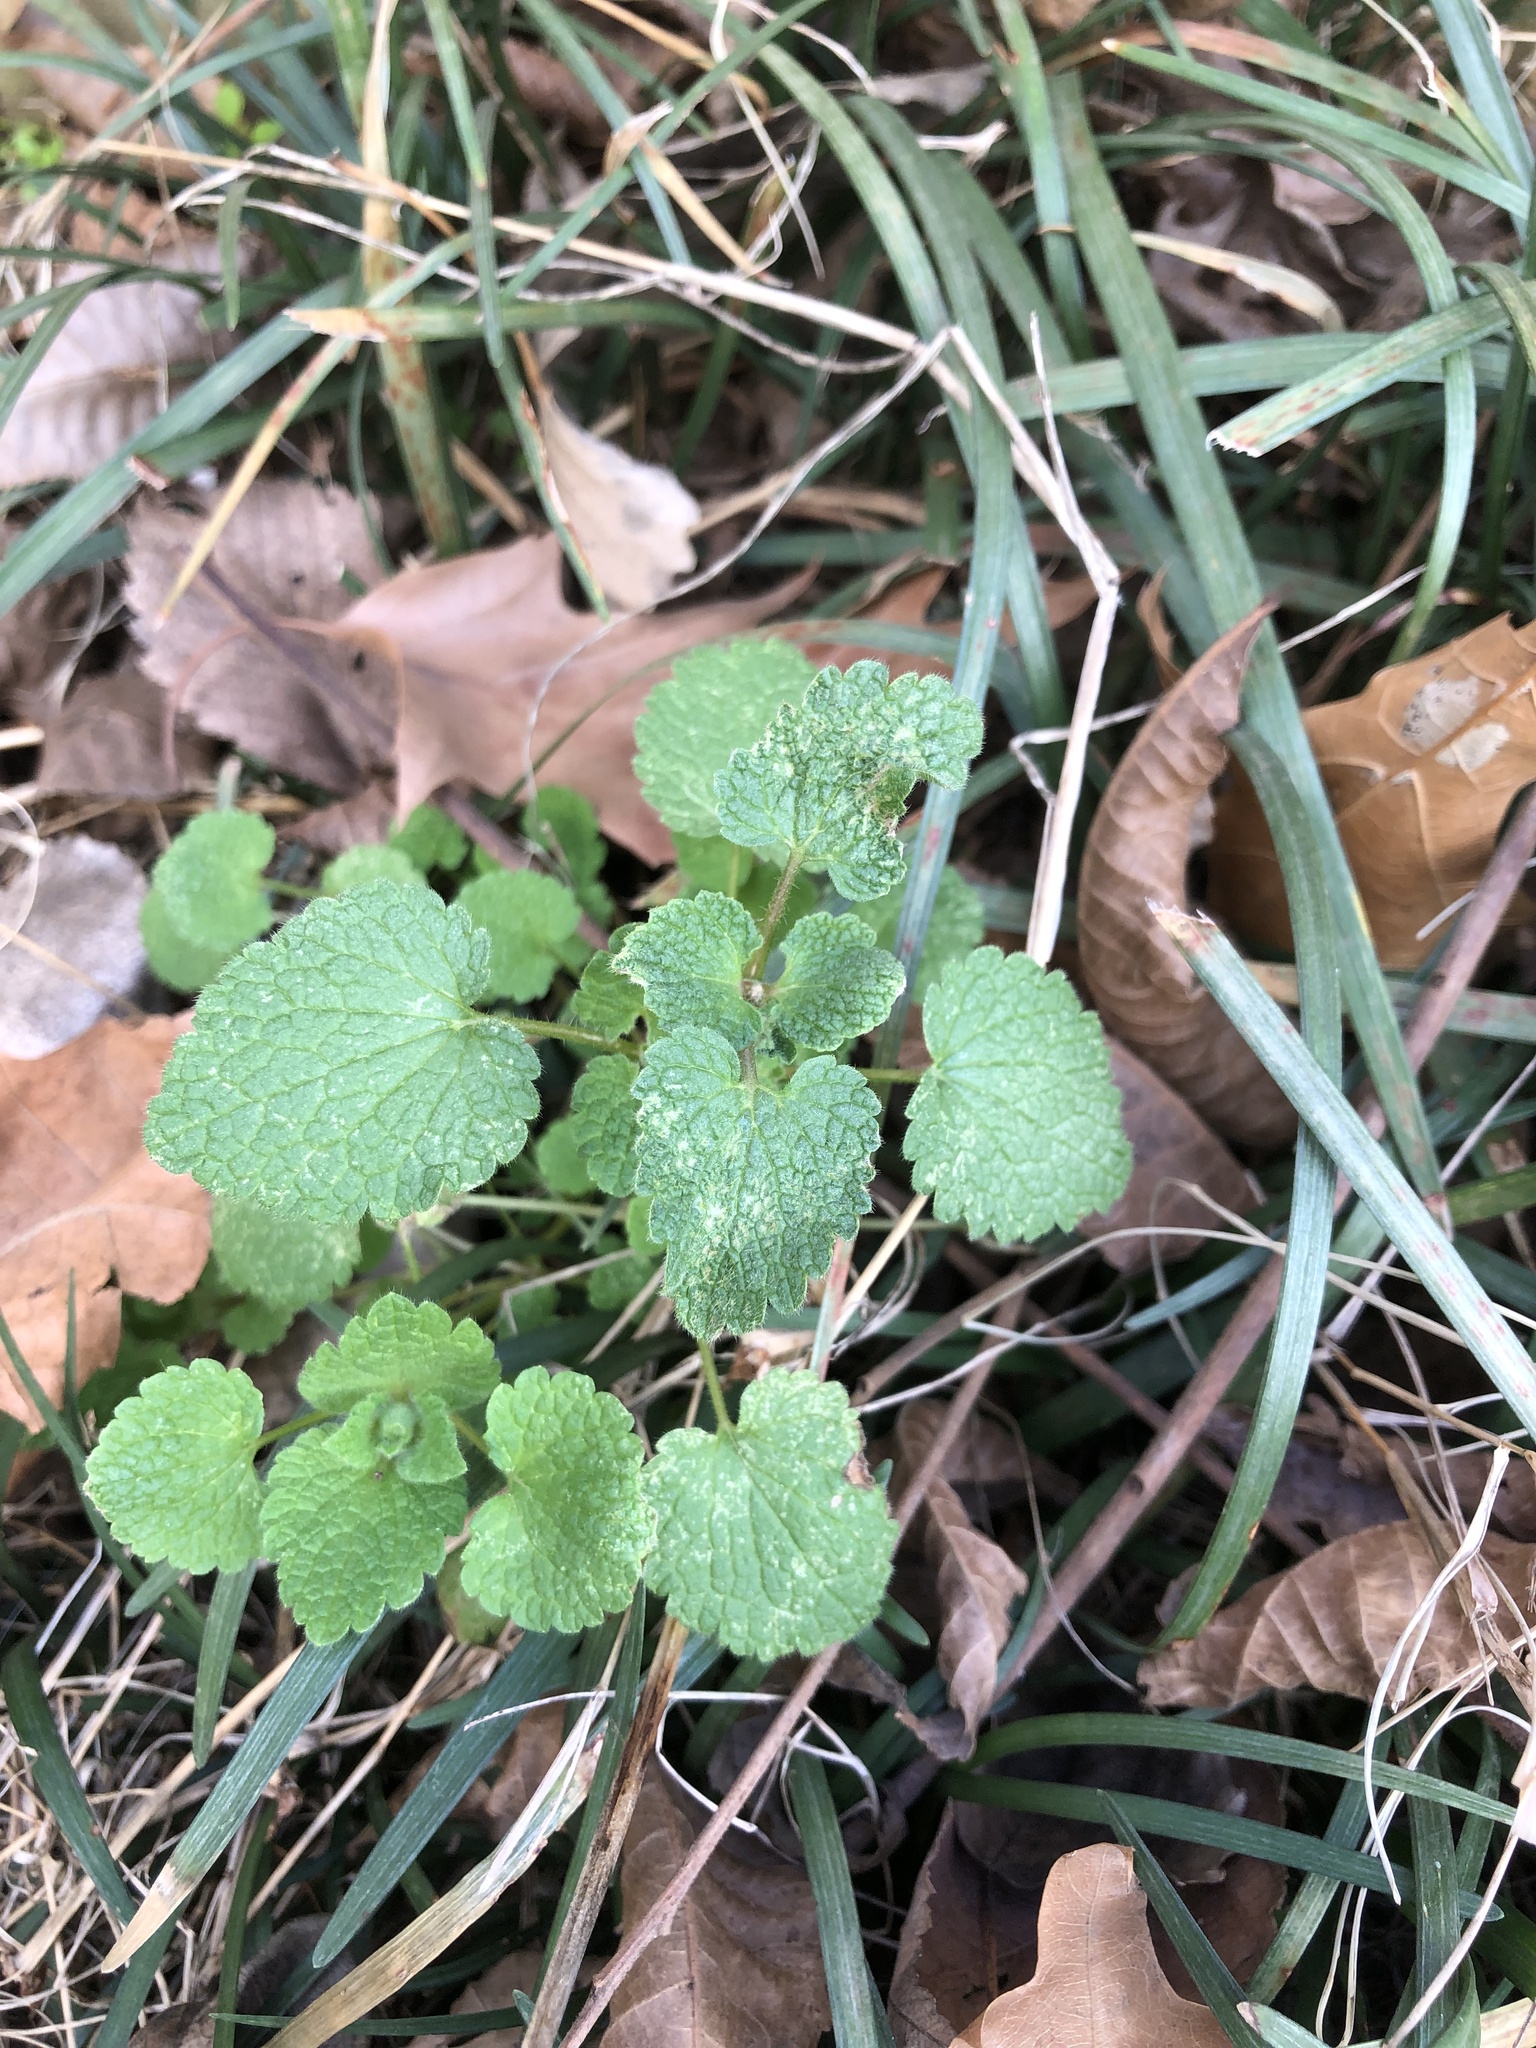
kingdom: Plantae
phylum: Tracheophyta
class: Magnoliopsida
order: Lamiales
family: Lamiaceae
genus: Lamium
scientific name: Lamium purpureum
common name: Red dead-nettle
